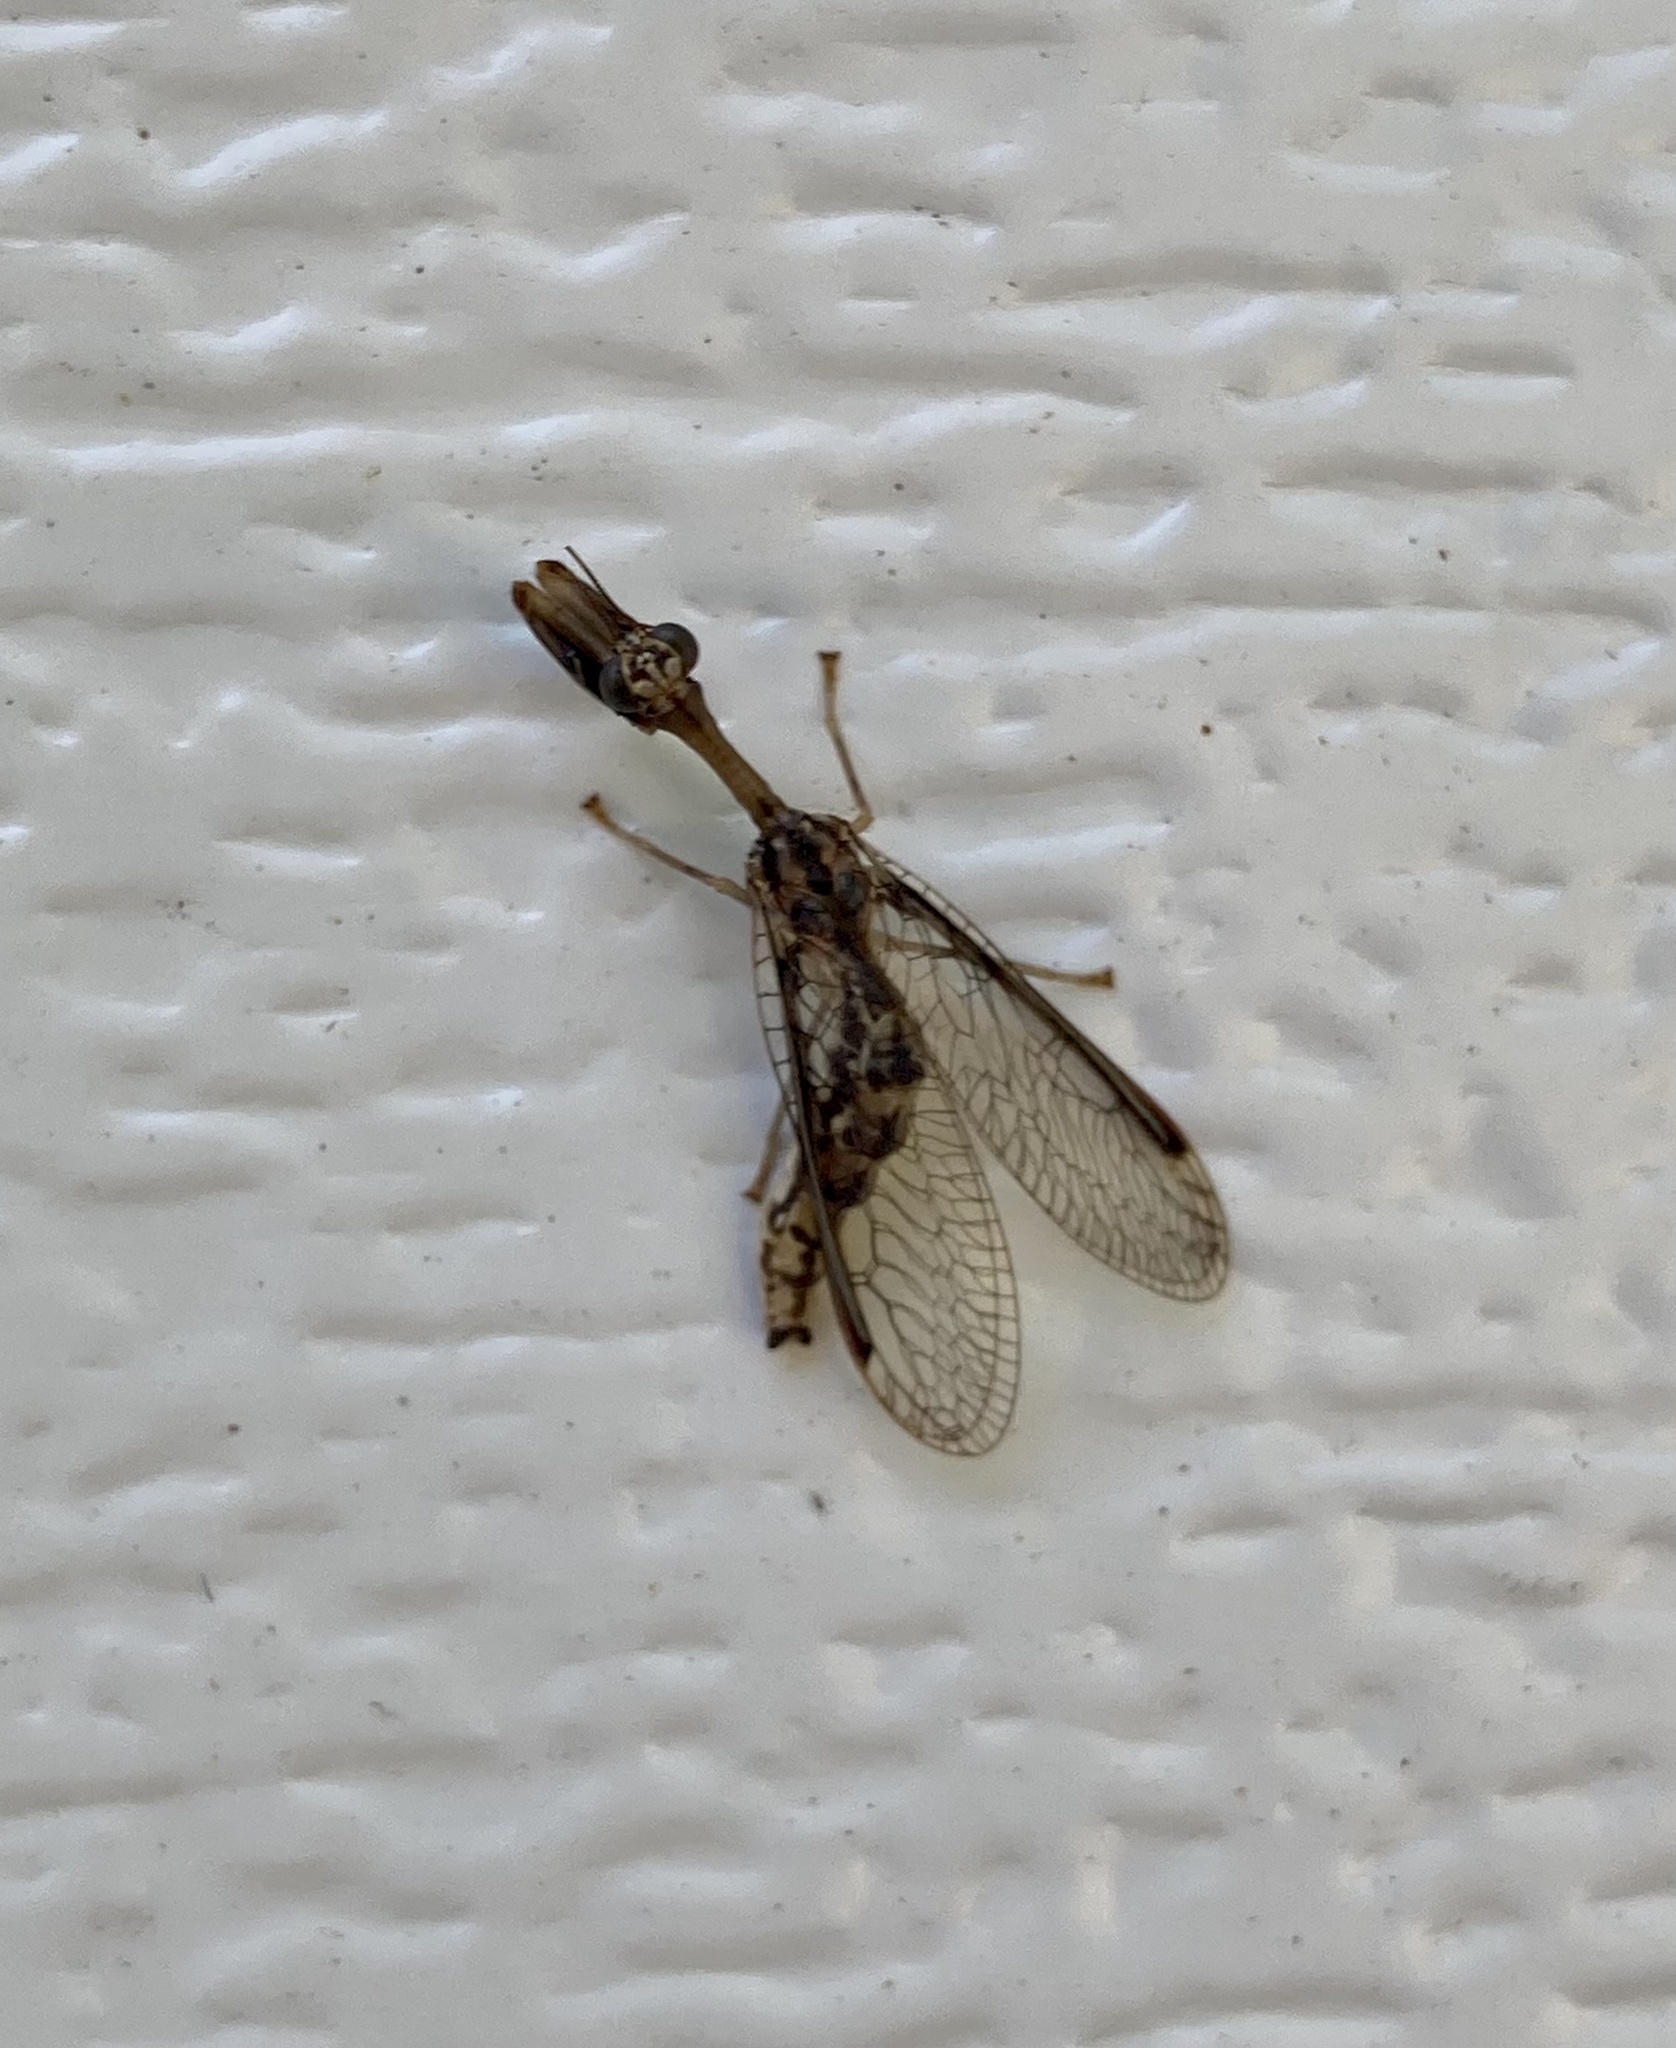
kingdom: Animalia
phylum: Arthropoda
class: Insecta
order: Neuroptera
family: Mantispidae
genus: Dicromantispa
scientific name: Dicromantispa sayi
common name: Say's mantidfly
